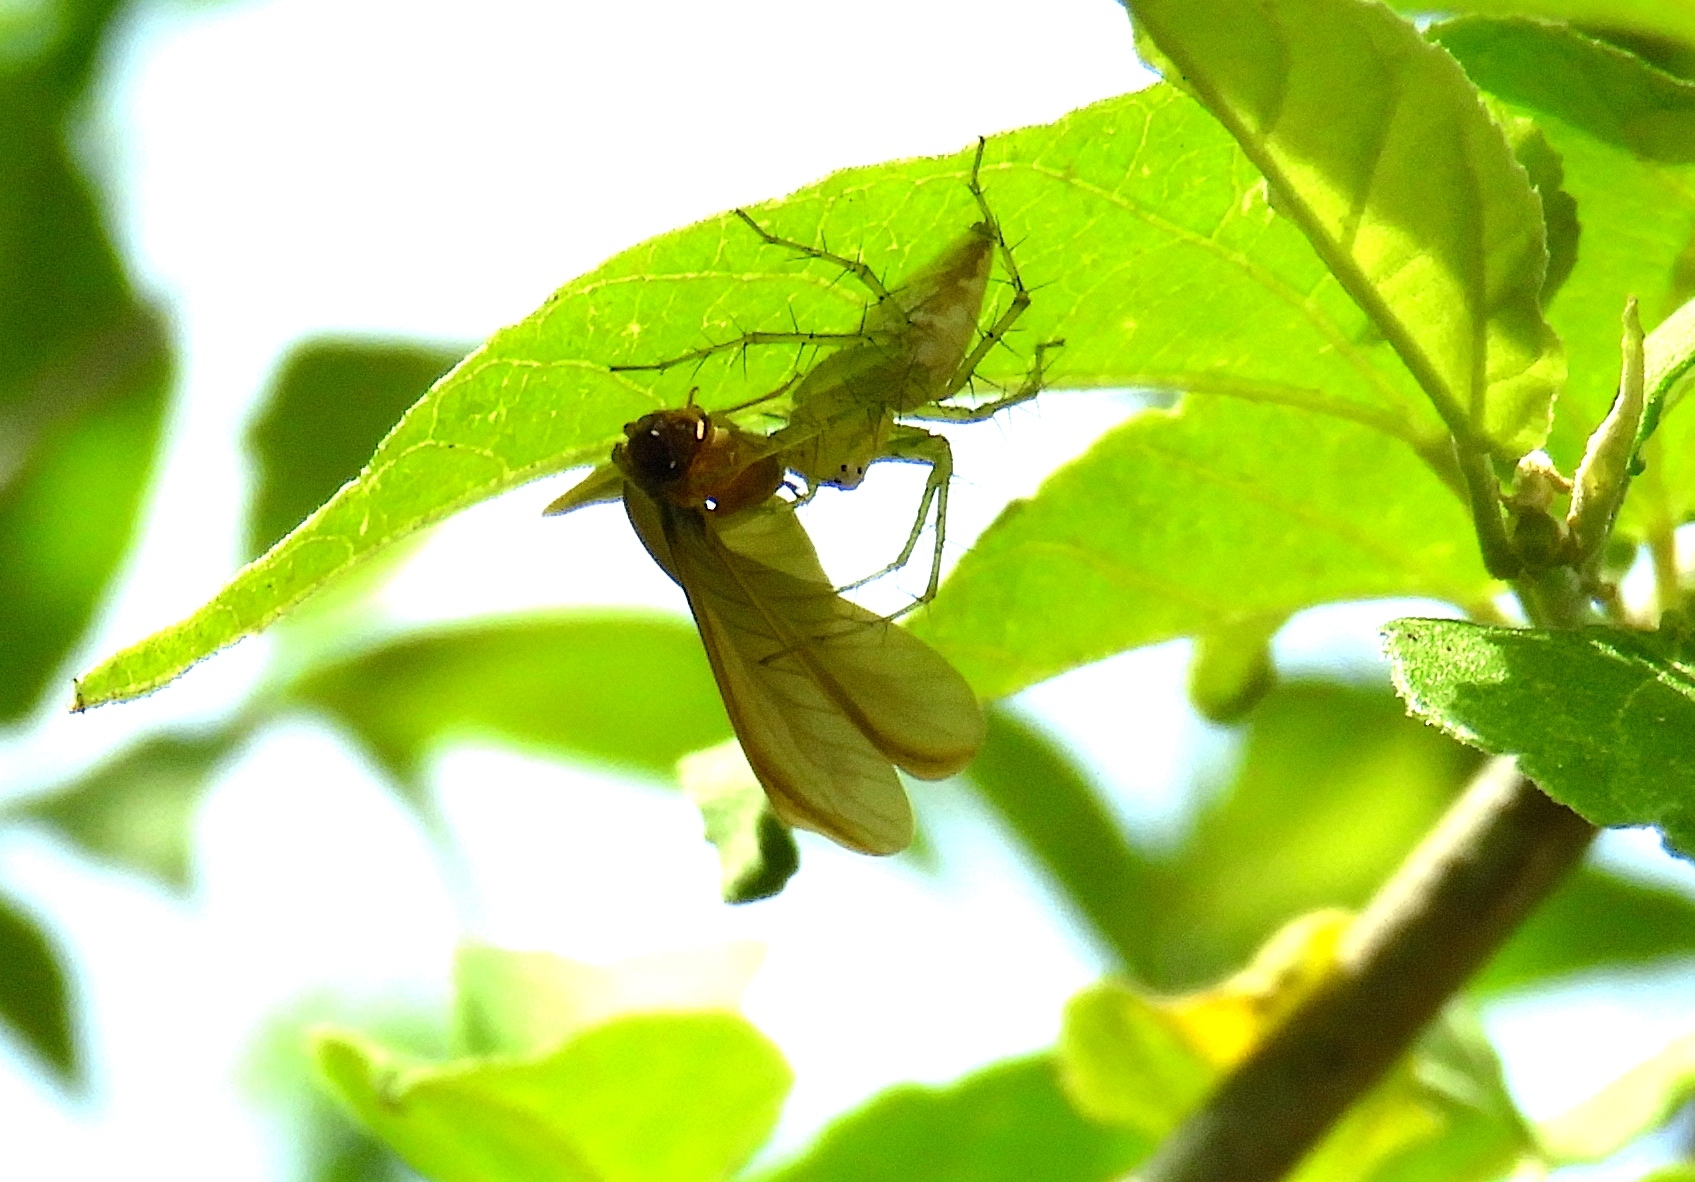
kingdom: Animalia
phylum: Arthropoda
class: Arachnida
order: Araneae
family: Oxyopidae
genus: Oxyopes
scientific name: Oxyopes
